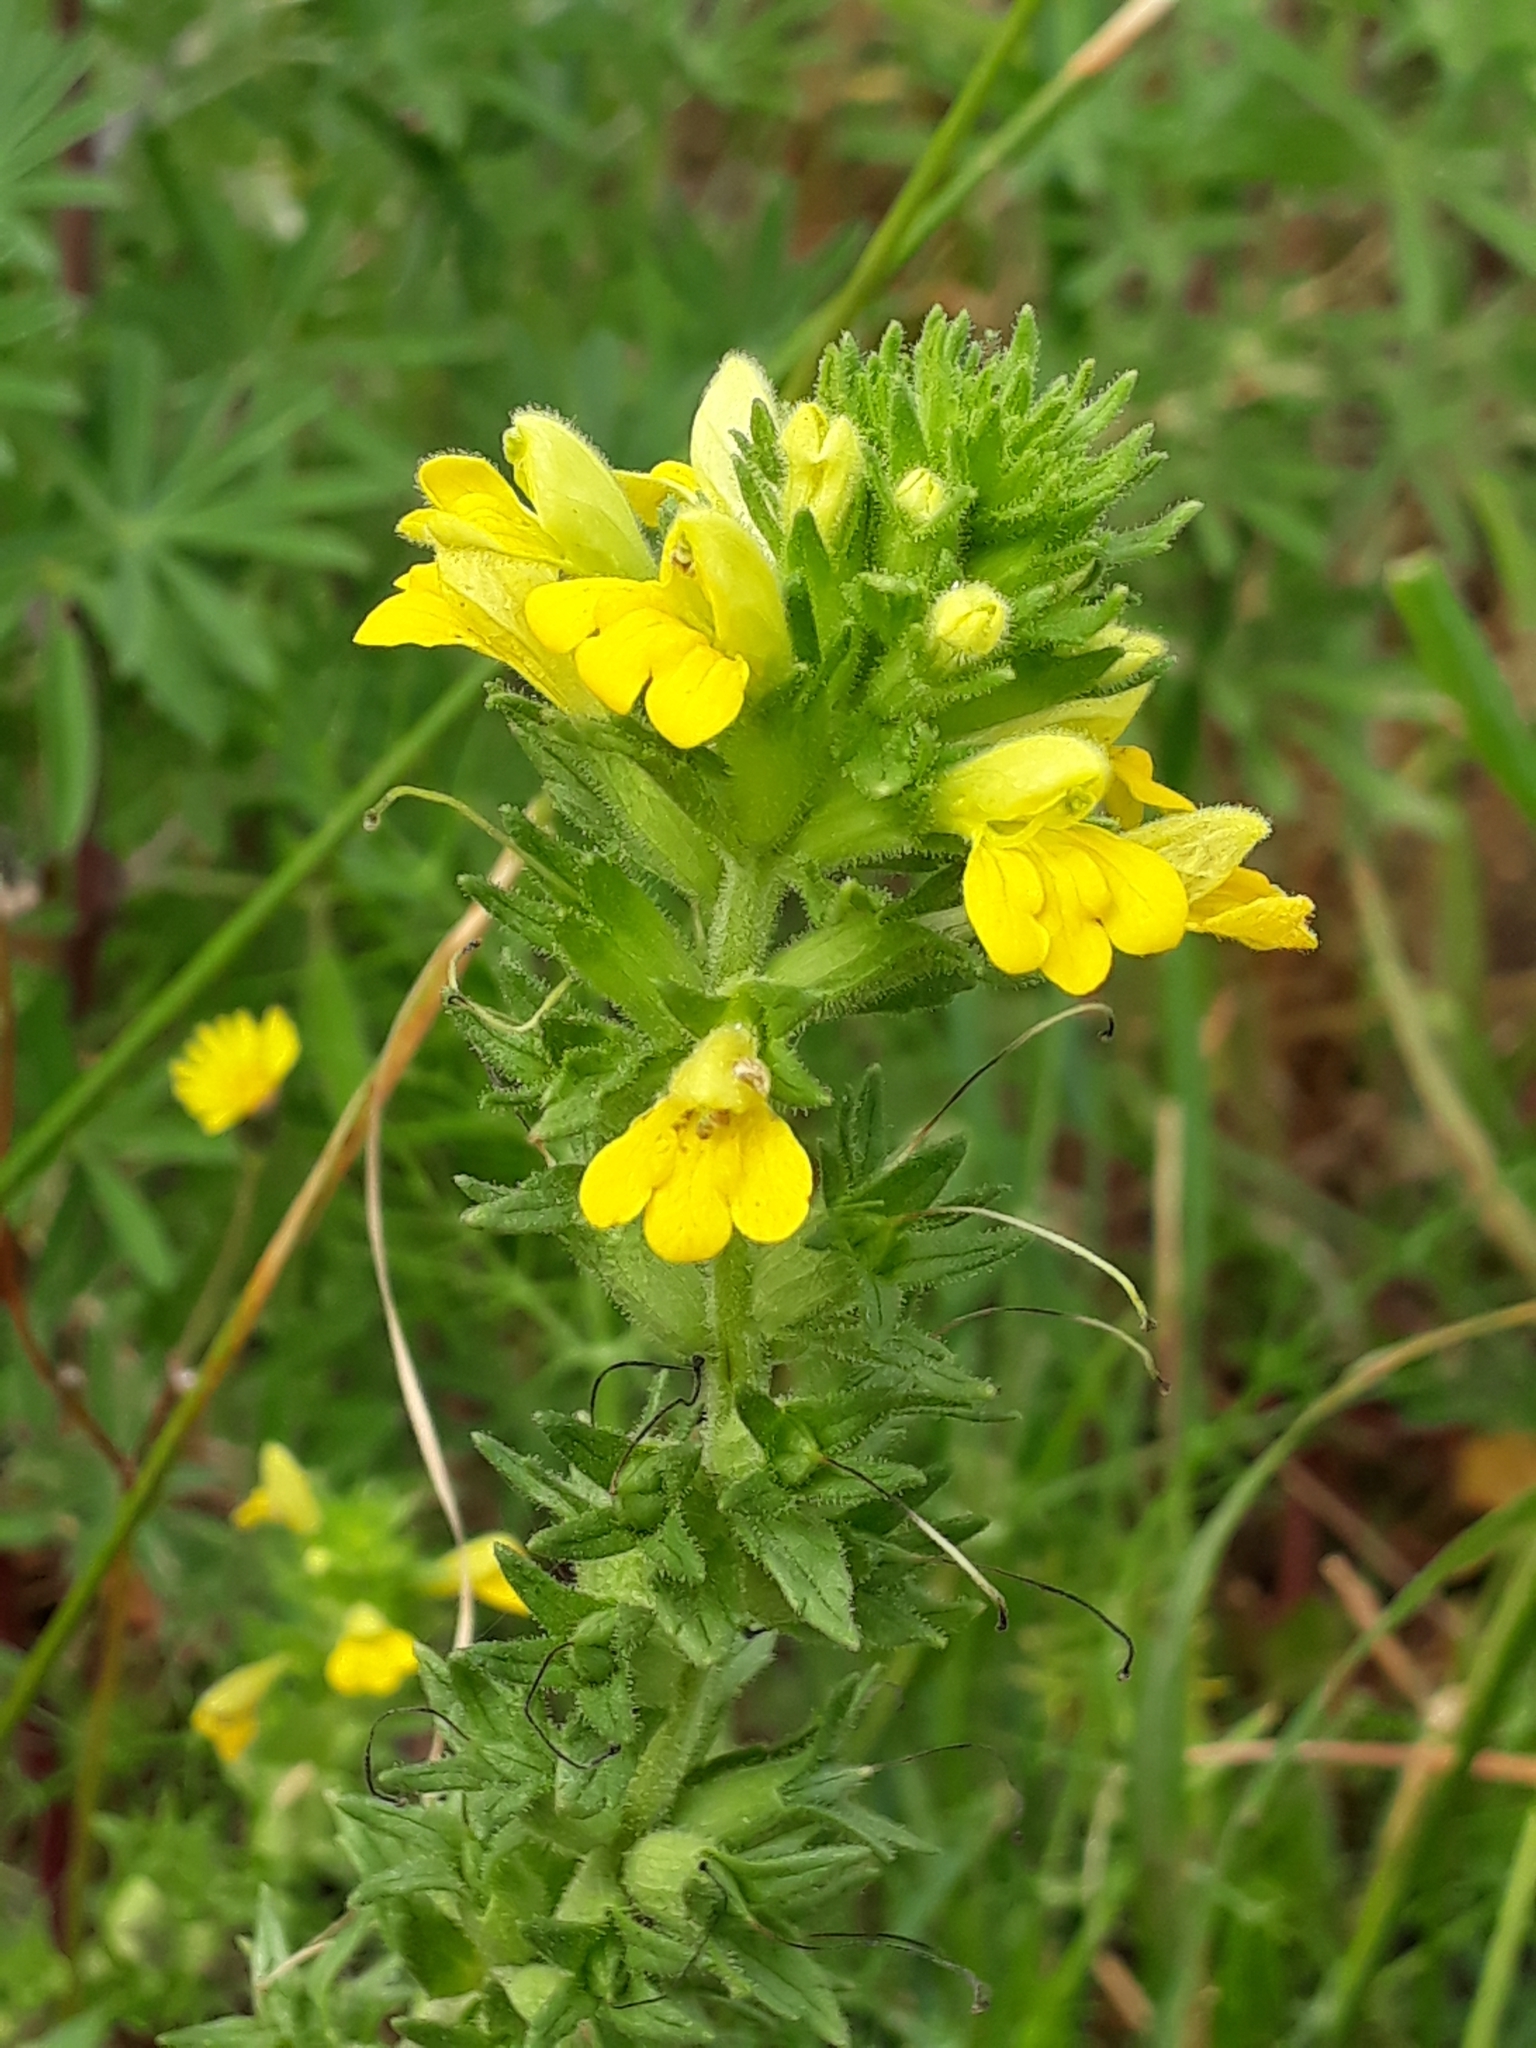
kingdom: Plantae
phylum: Tracheophyta
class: Magnoliopsida
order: Lamiales
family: Orobanchaceae
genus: Bellardia
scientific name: Bellardia viscosa
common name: Sticky parentucellia
